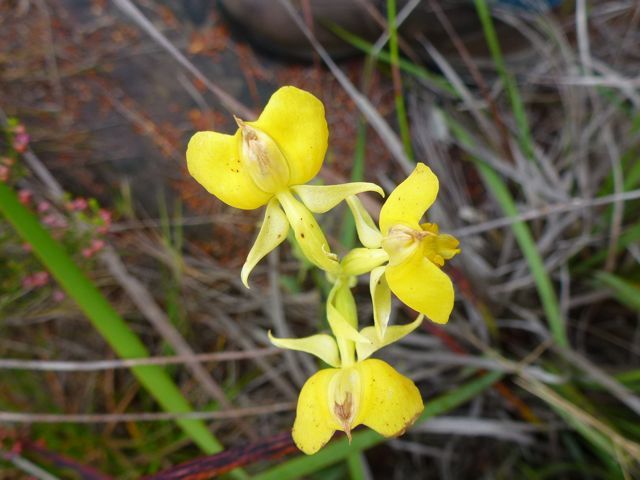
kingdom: Plantae
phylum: Tracheophyta
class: Liliopsida
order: Asparagales
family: Orchidaceae
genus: Pterygodium
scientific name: Pterygodium acutifolium
